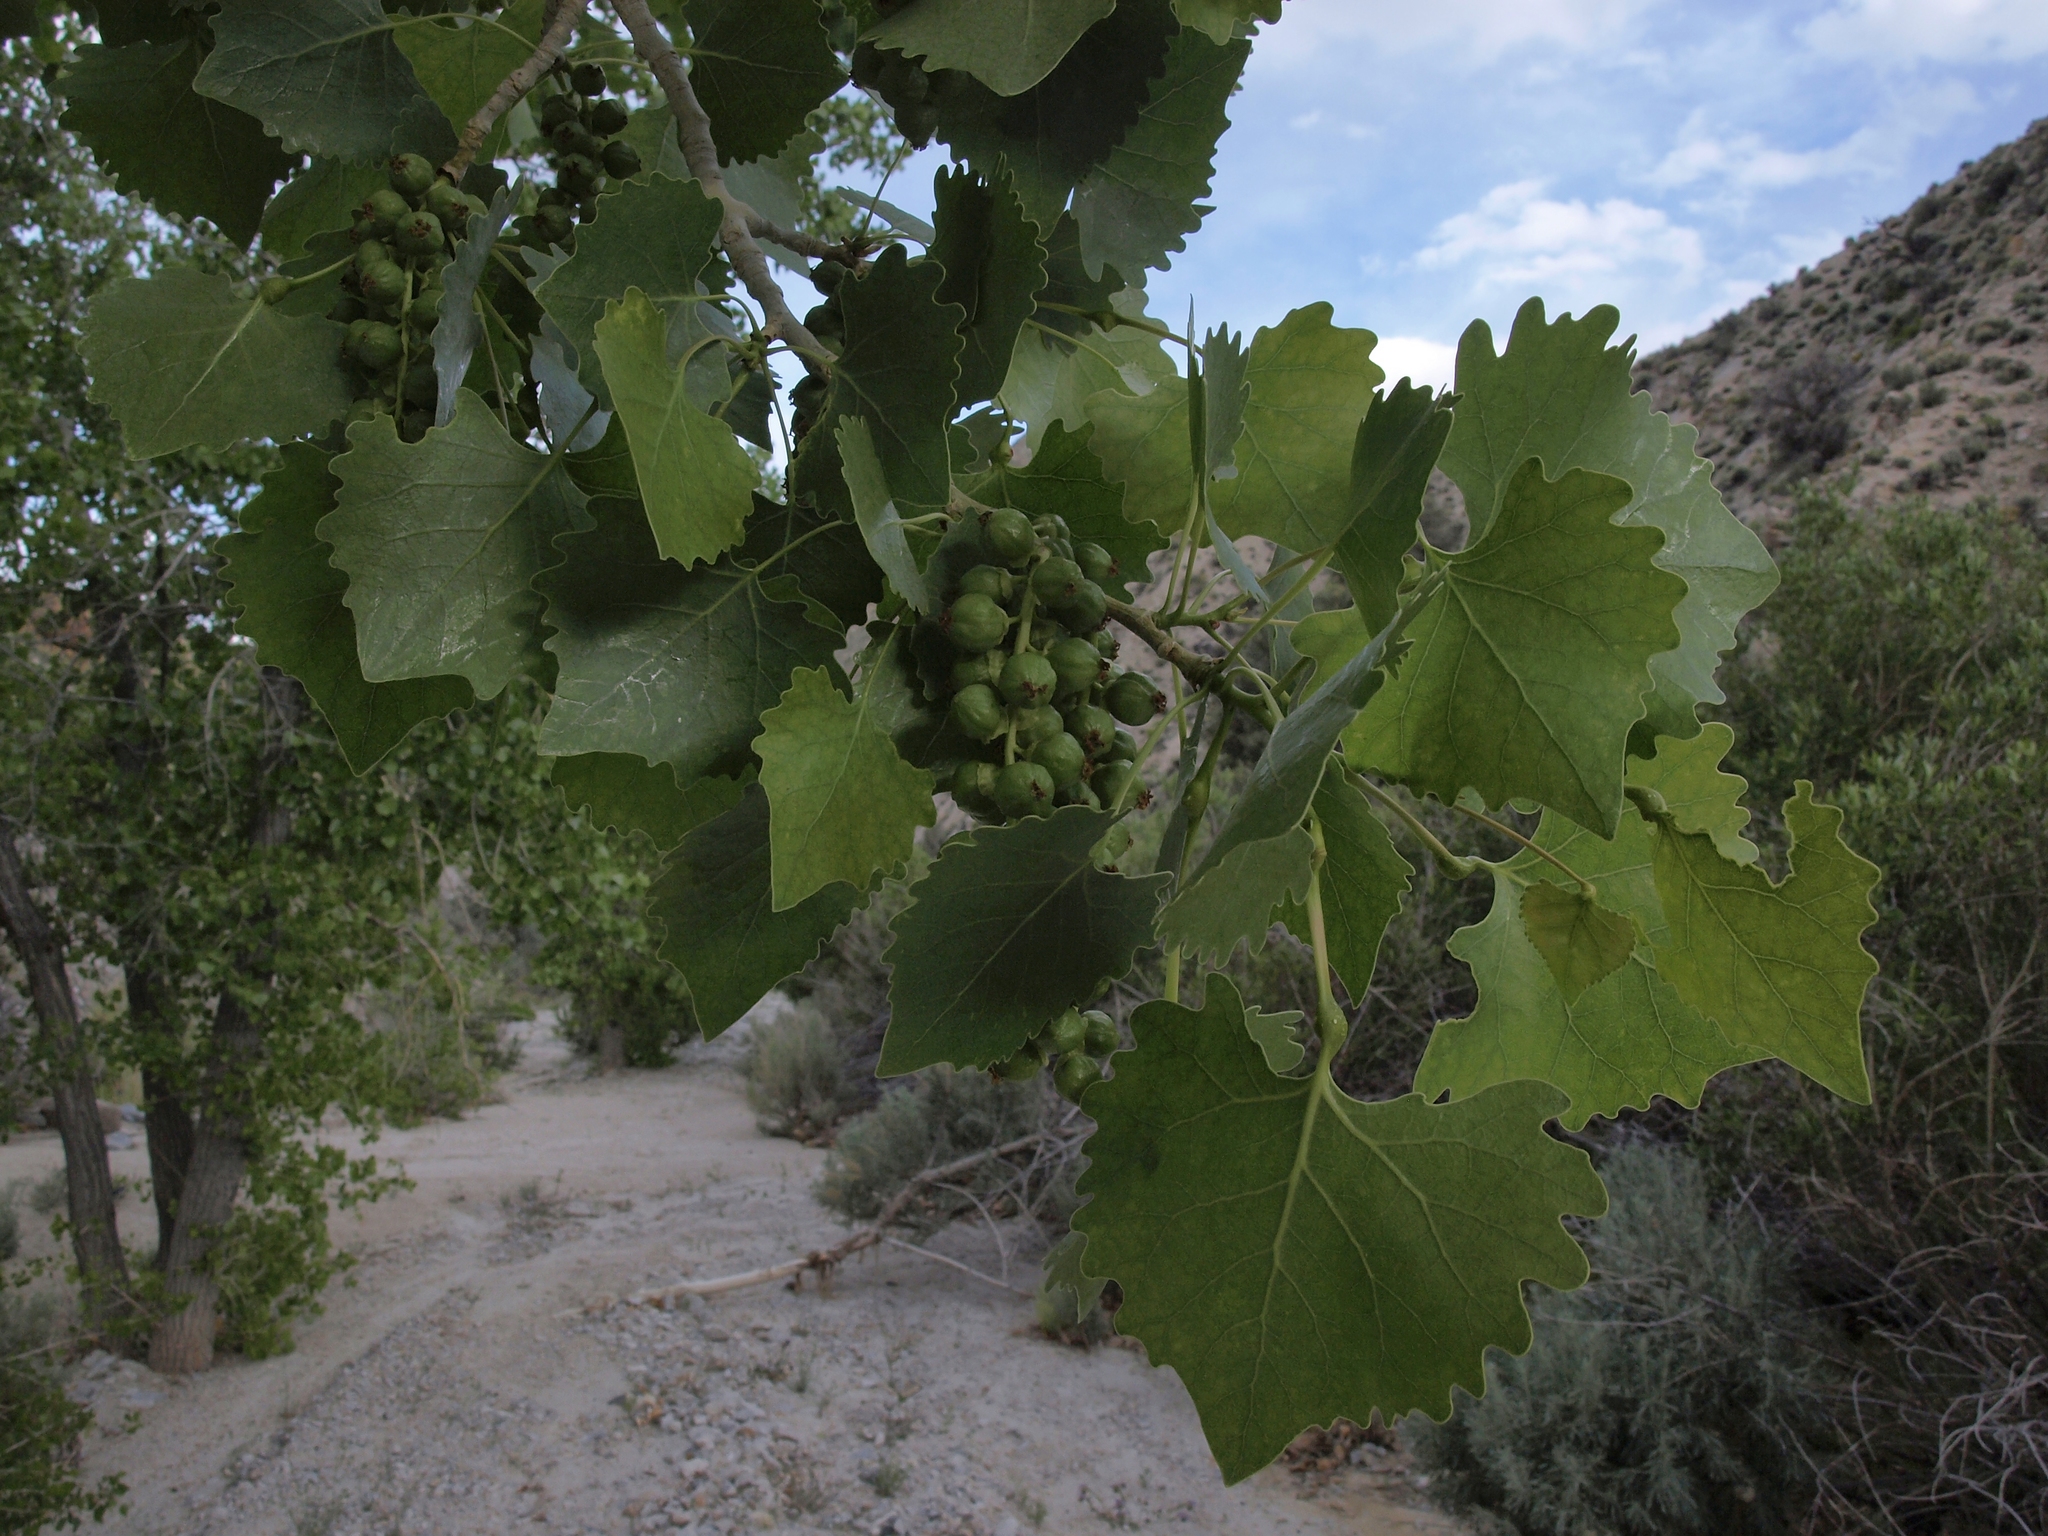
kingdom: Plantae
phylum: Tracheophyta
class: Magnoliopsida
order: Malpighiales
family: Salicaceae
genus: Populus
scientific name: Populus fremontii
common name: Fremont's cottonwood
